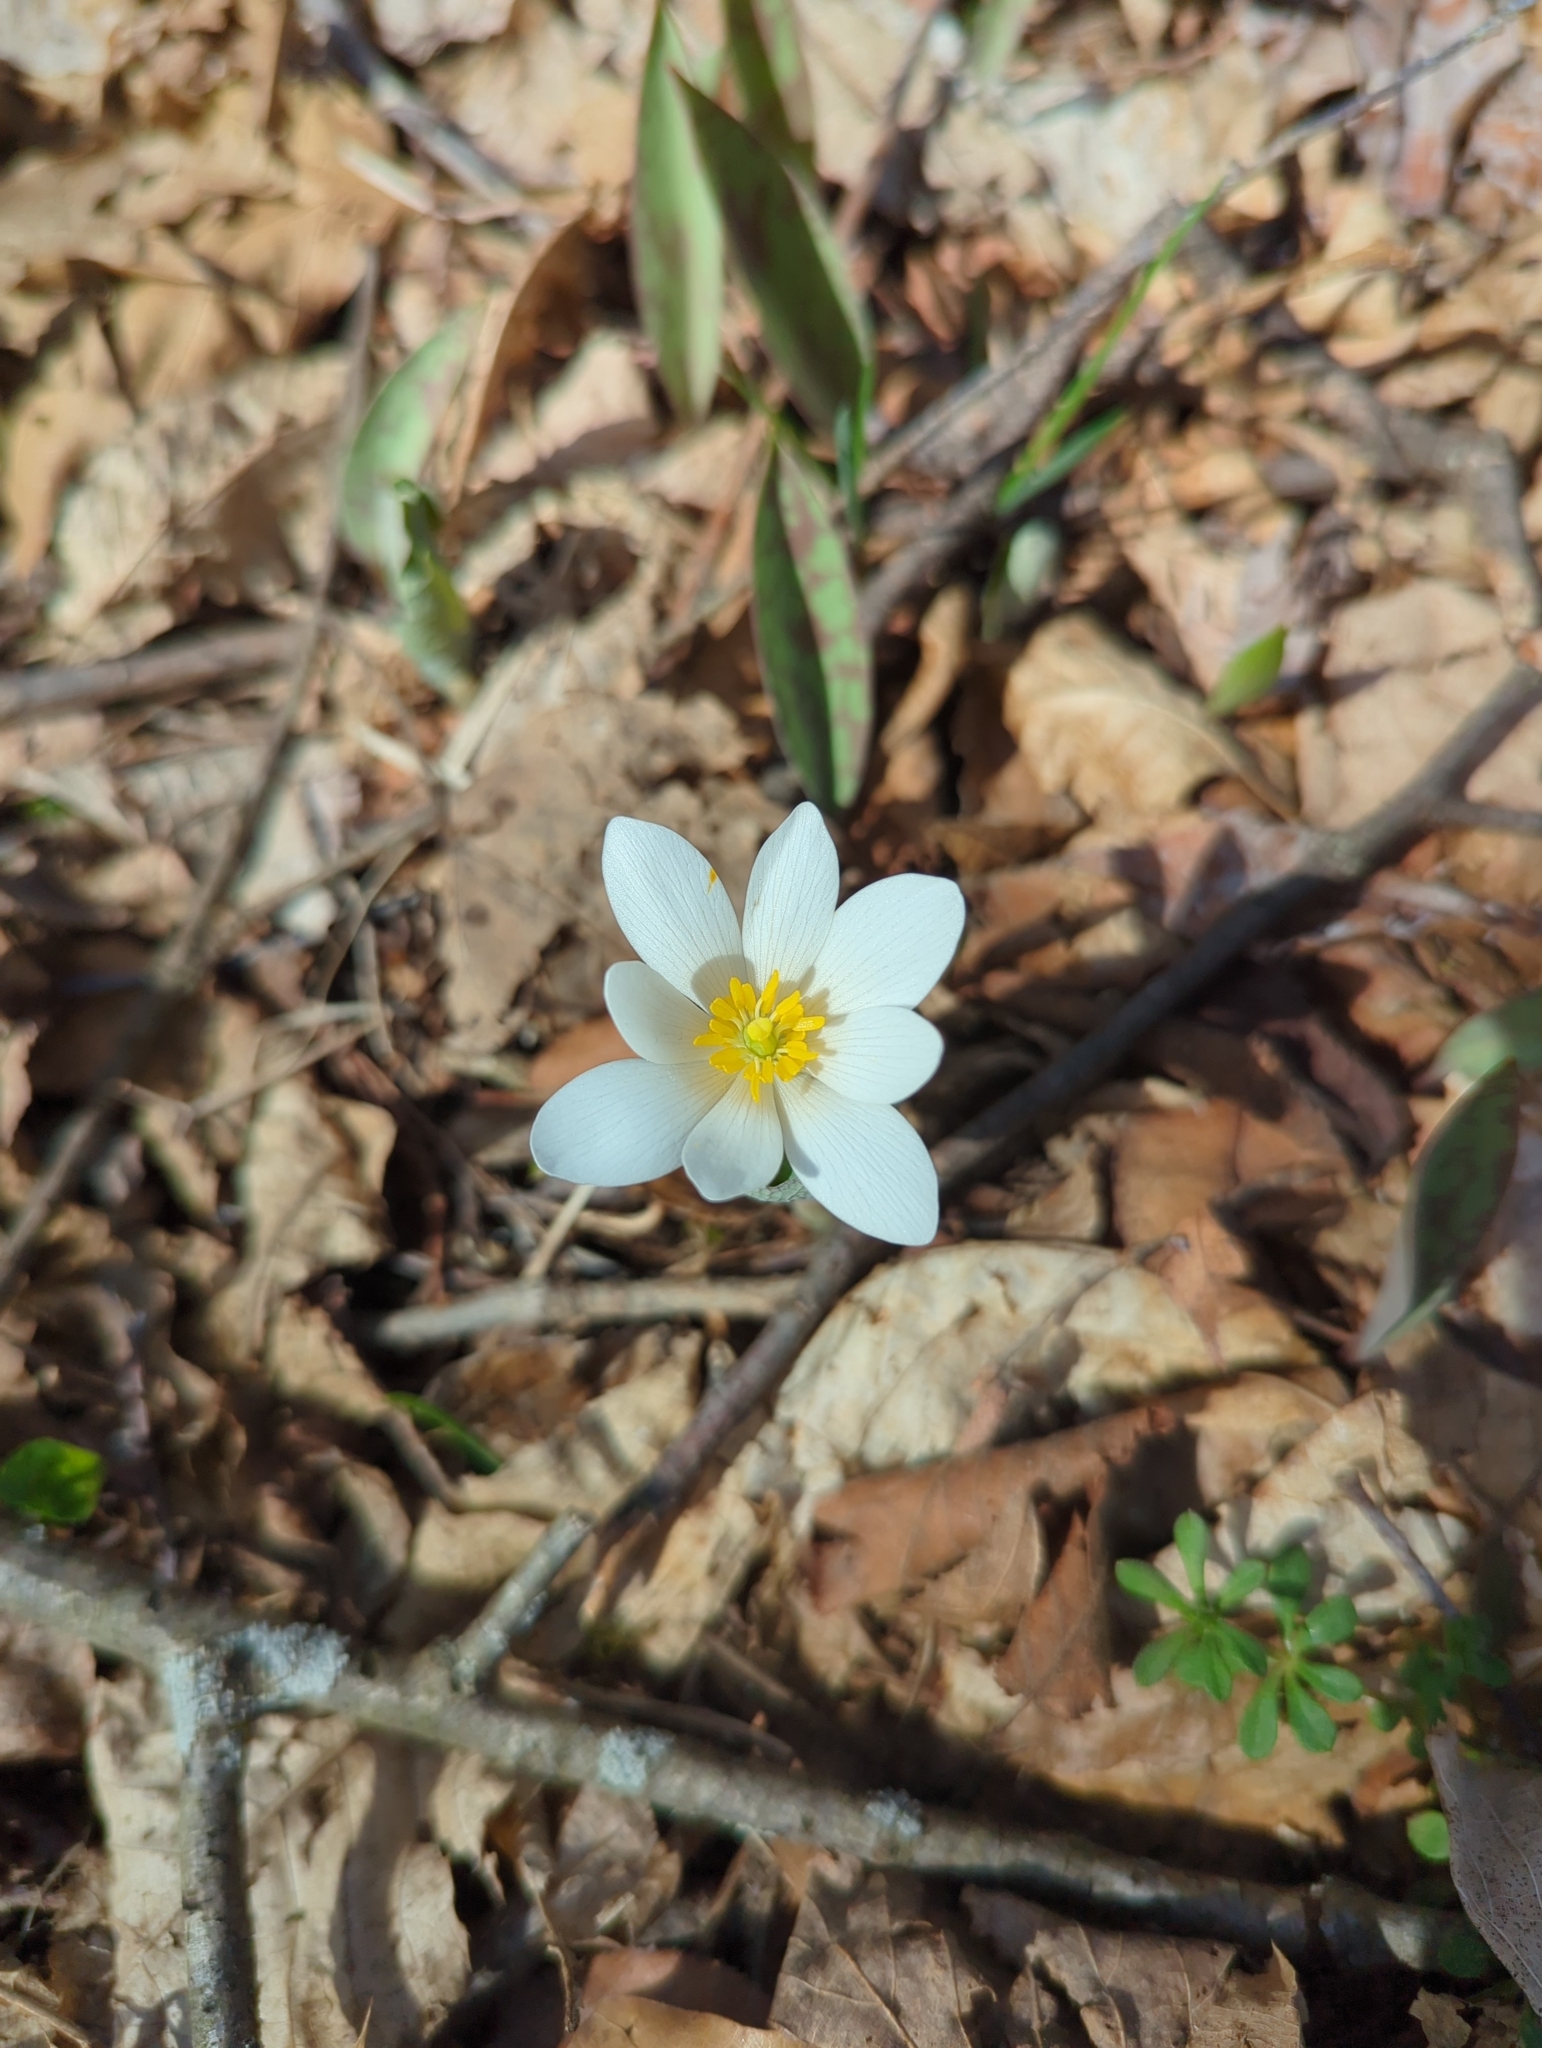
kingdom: Plantae
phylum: Tracheophyta
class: Magnoliopsida
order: Ranunculales
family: Papaveraceae
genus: Sanguinaria
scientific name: Sanguinaria canadensis
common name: Bloodroot
